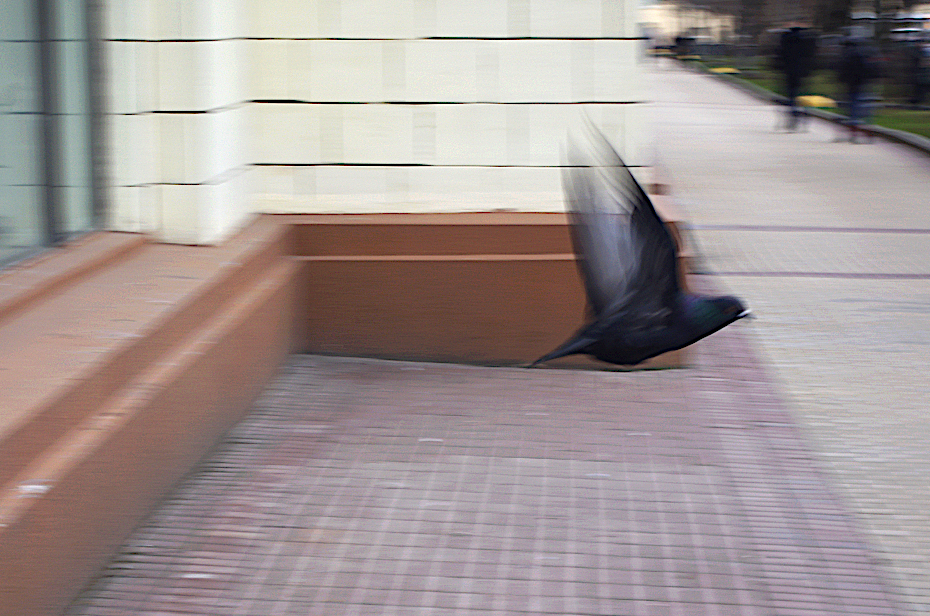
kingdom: Animalia
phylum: Chordata
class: Aves
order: Columbiformes
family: Columbidae
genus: Columba
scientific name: Columba livia
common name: Rock pigeon
